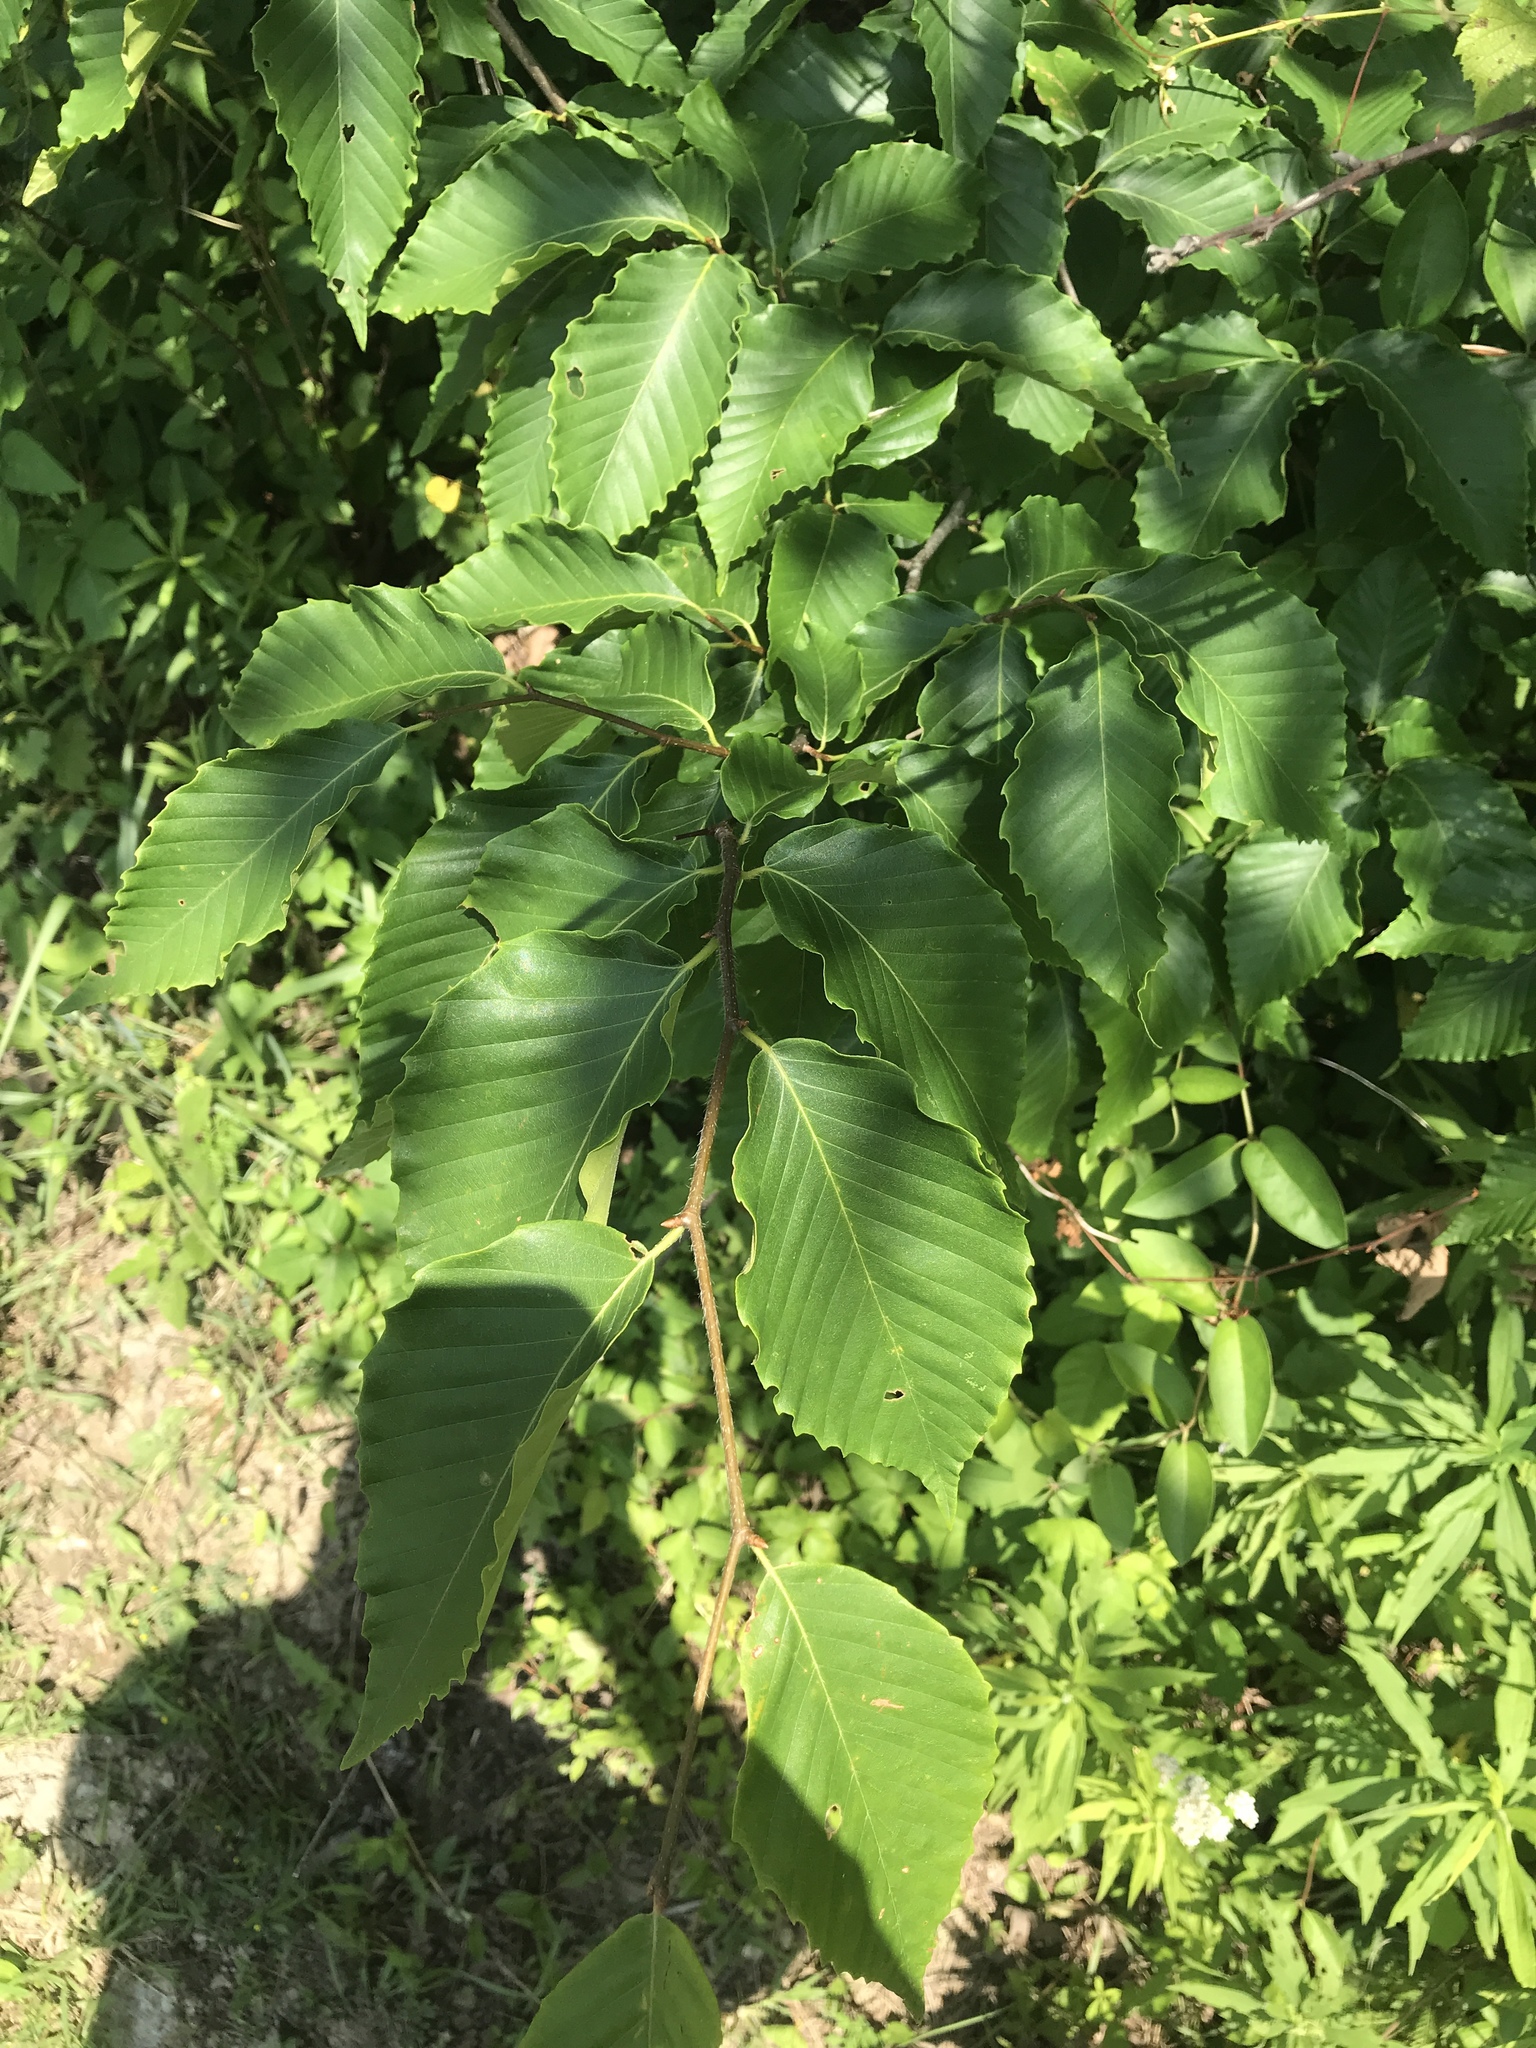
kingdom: Plantae
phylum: Tracheophyta
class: Magnoliopsida
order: Fagales
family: Fagaceae
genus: Fagus
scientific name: Fagus grandifolia
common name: American beech
